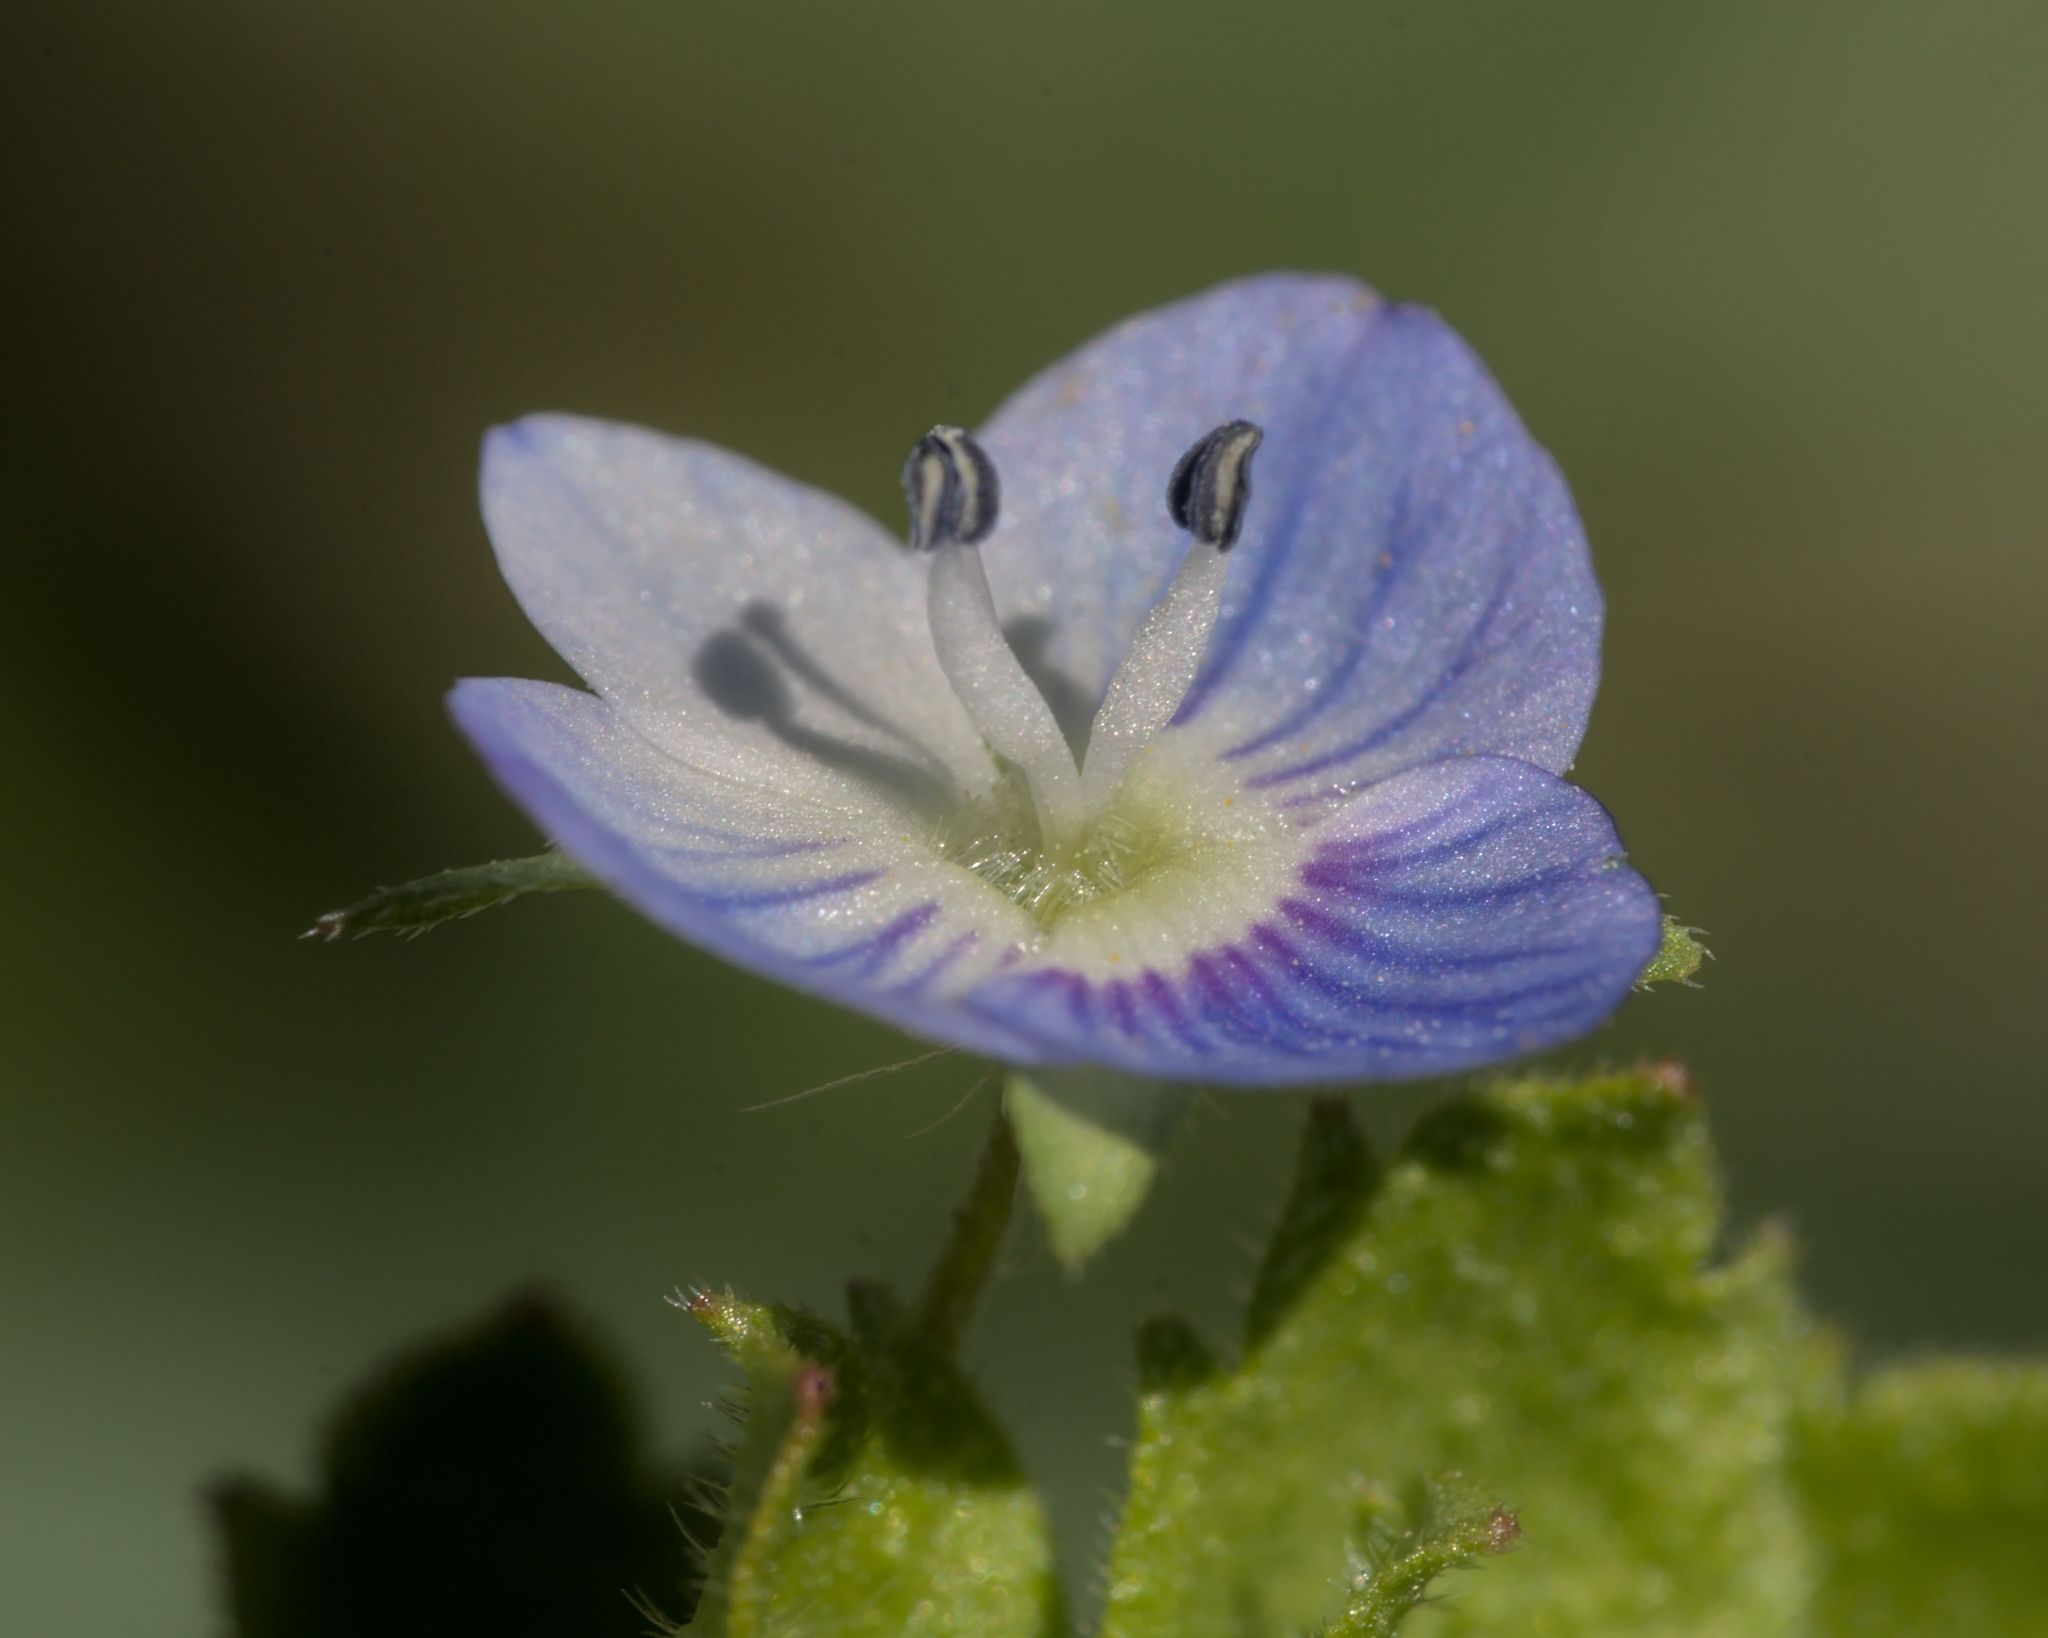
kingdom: Plantae
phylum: Tracheophyta
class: Magnoliopsida
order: Lamiales
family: Plantaginaceae
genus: Veronica
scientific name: Veronica persica
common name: Common field-speedwell
